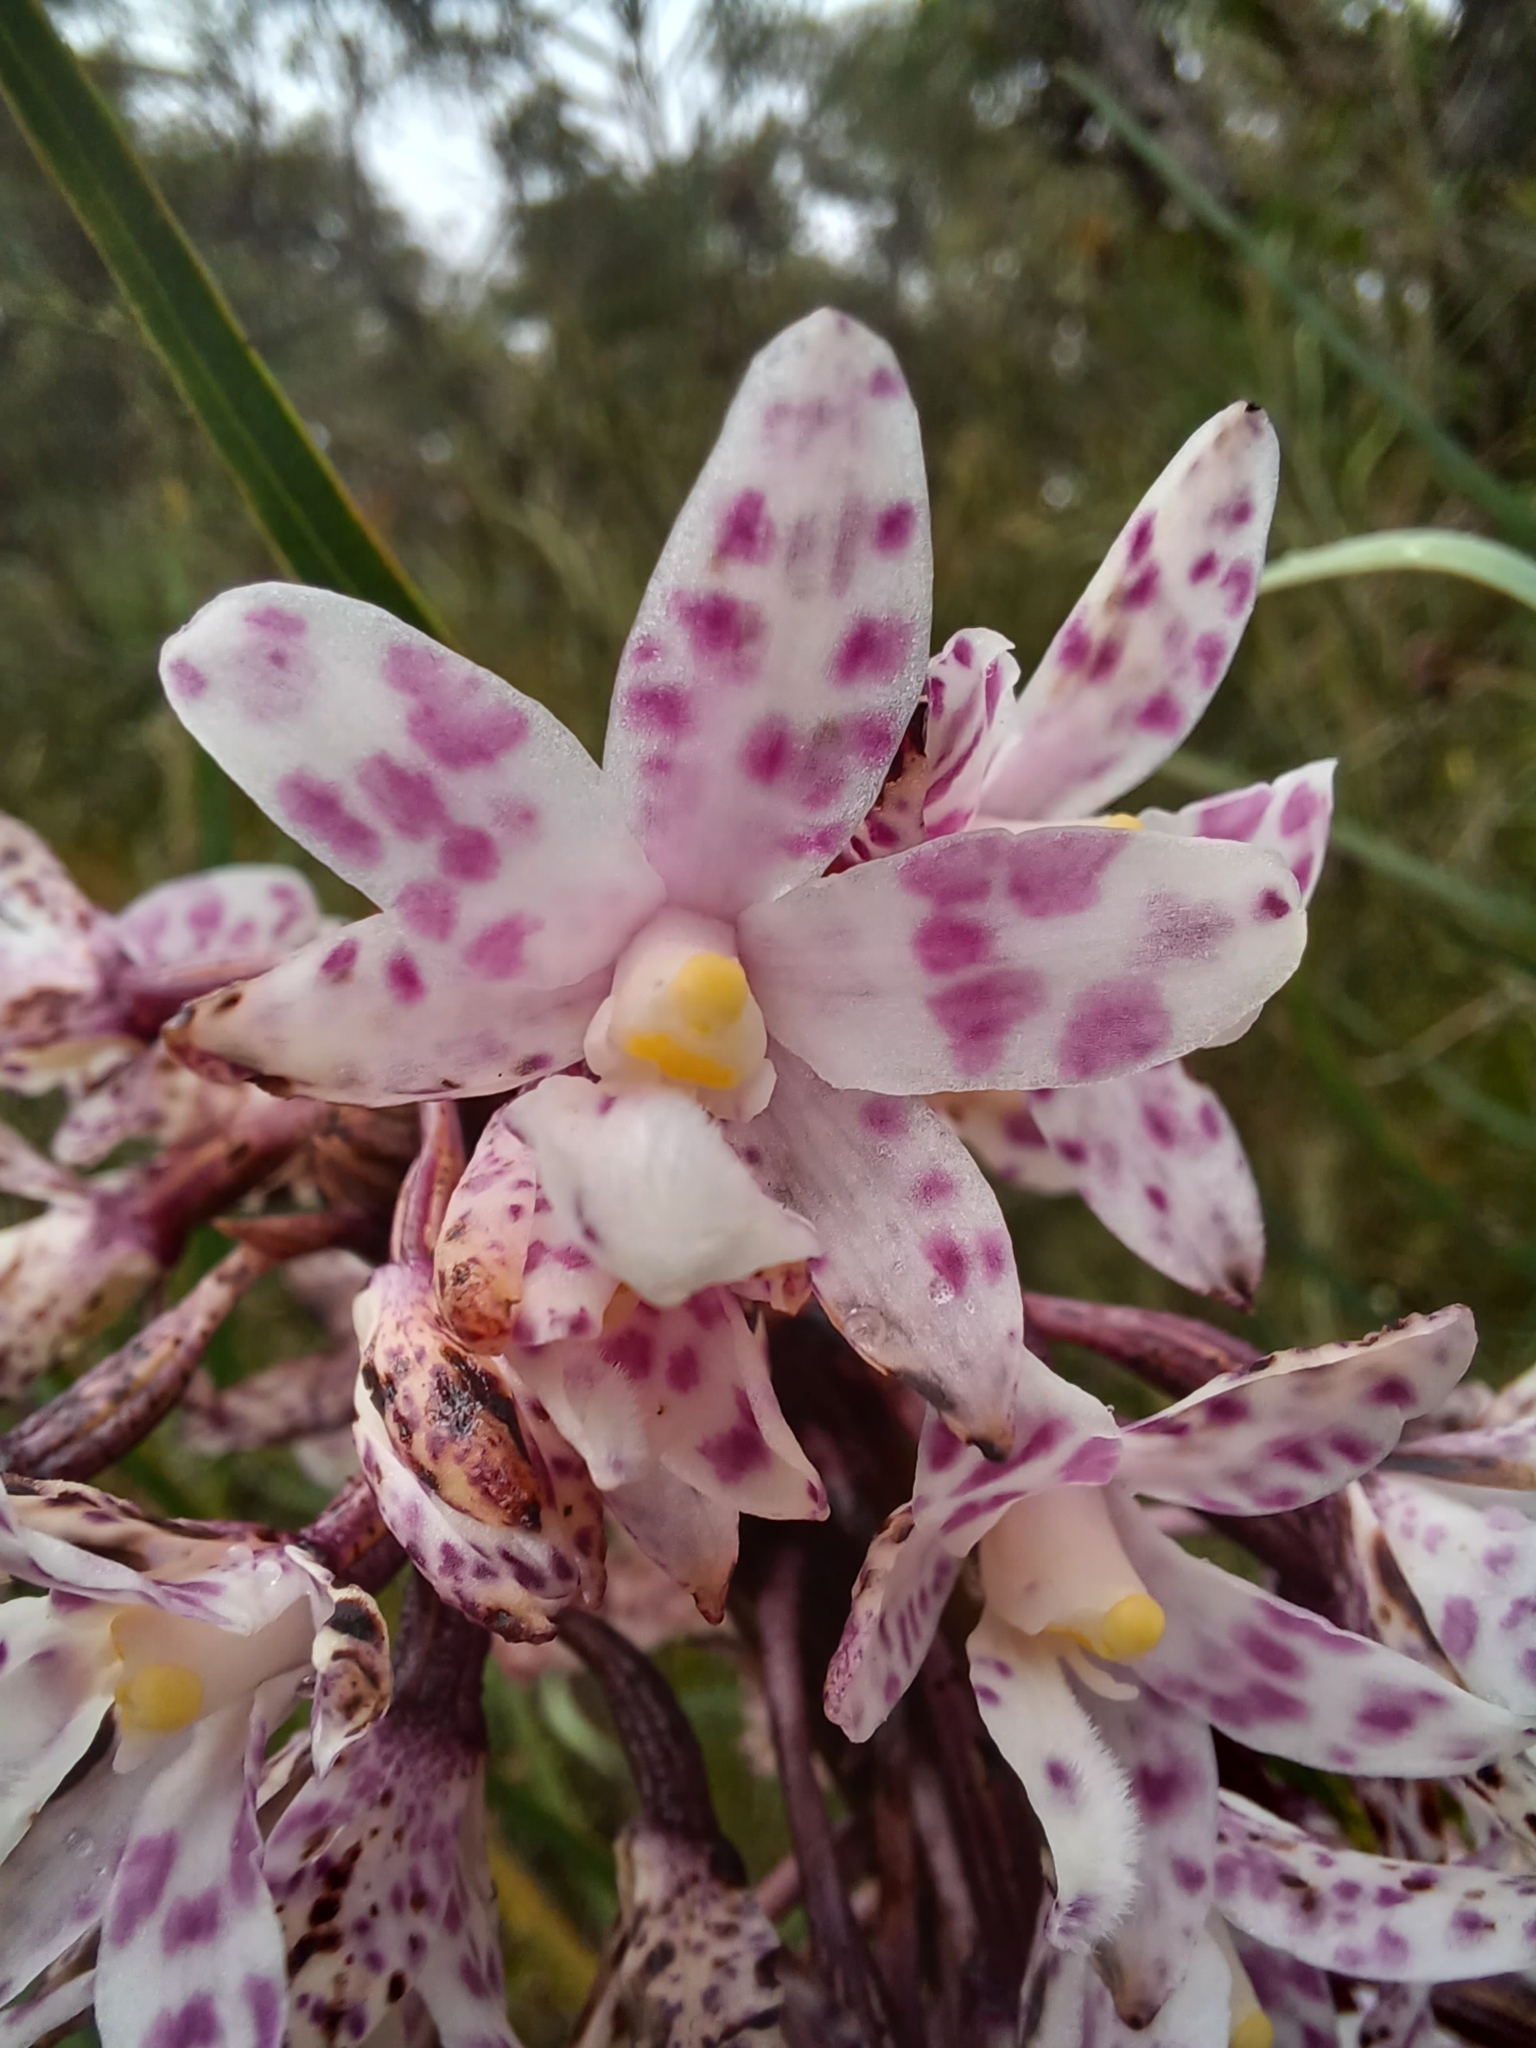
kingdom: Plantae
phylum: Tracheophyta
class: Liliopsida
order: Asparagales
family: Orchidaceae
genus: Dipodium
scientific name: Dipodium pardalinum
